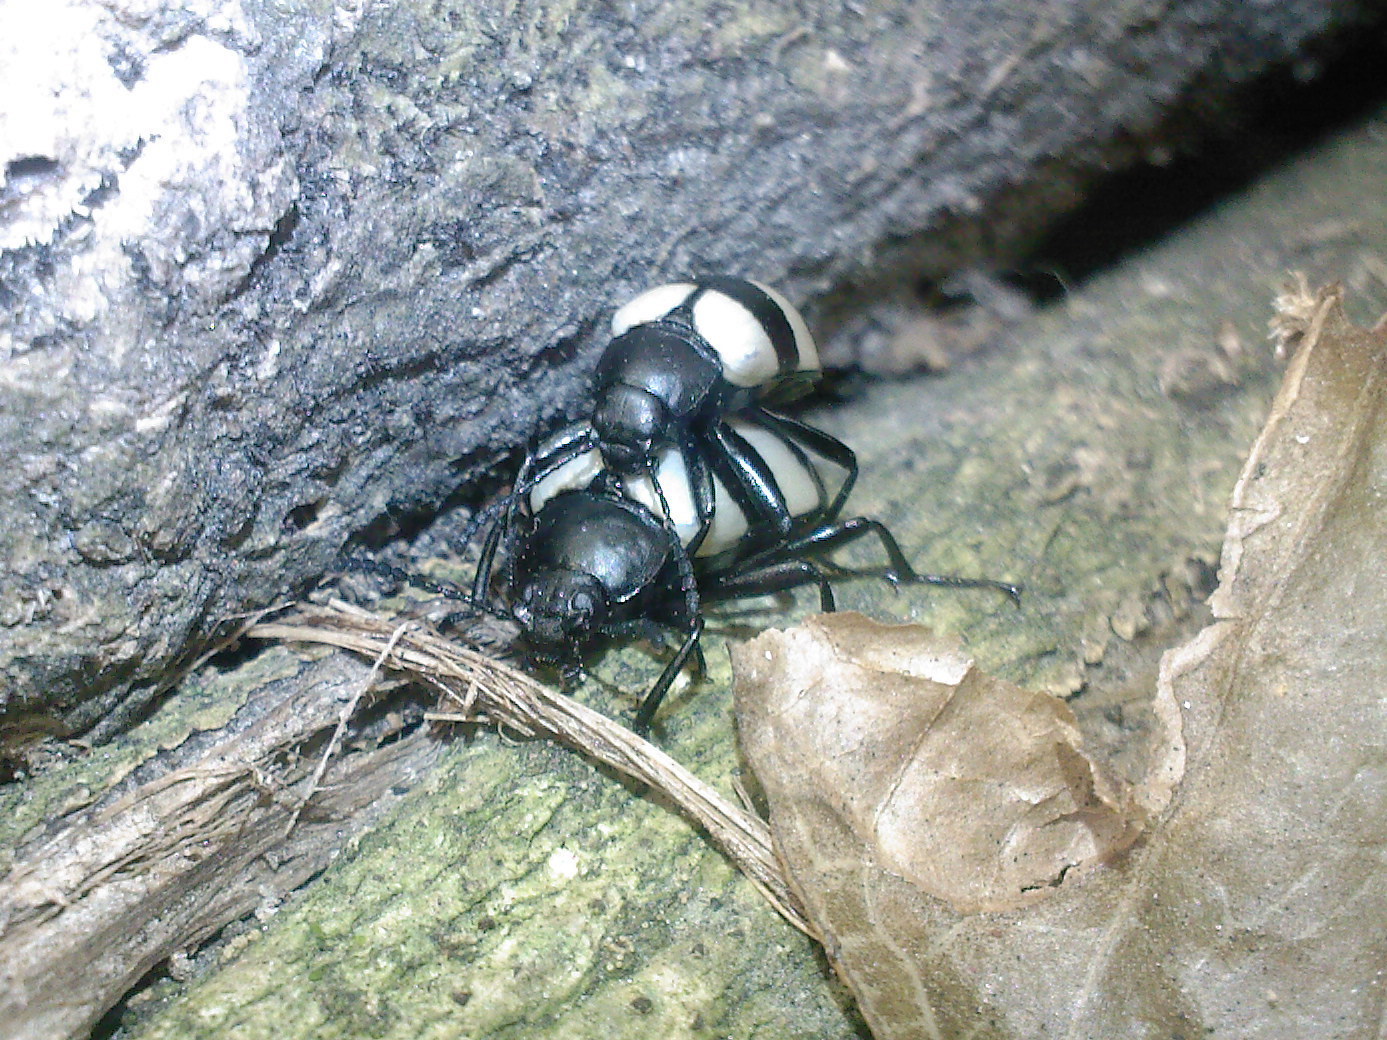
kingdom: Animalia
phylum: Arthropoda
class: Insecta
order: Coleoptera
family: Tenebrionidae
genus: Poecilesthus
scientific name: Poecilesthus
